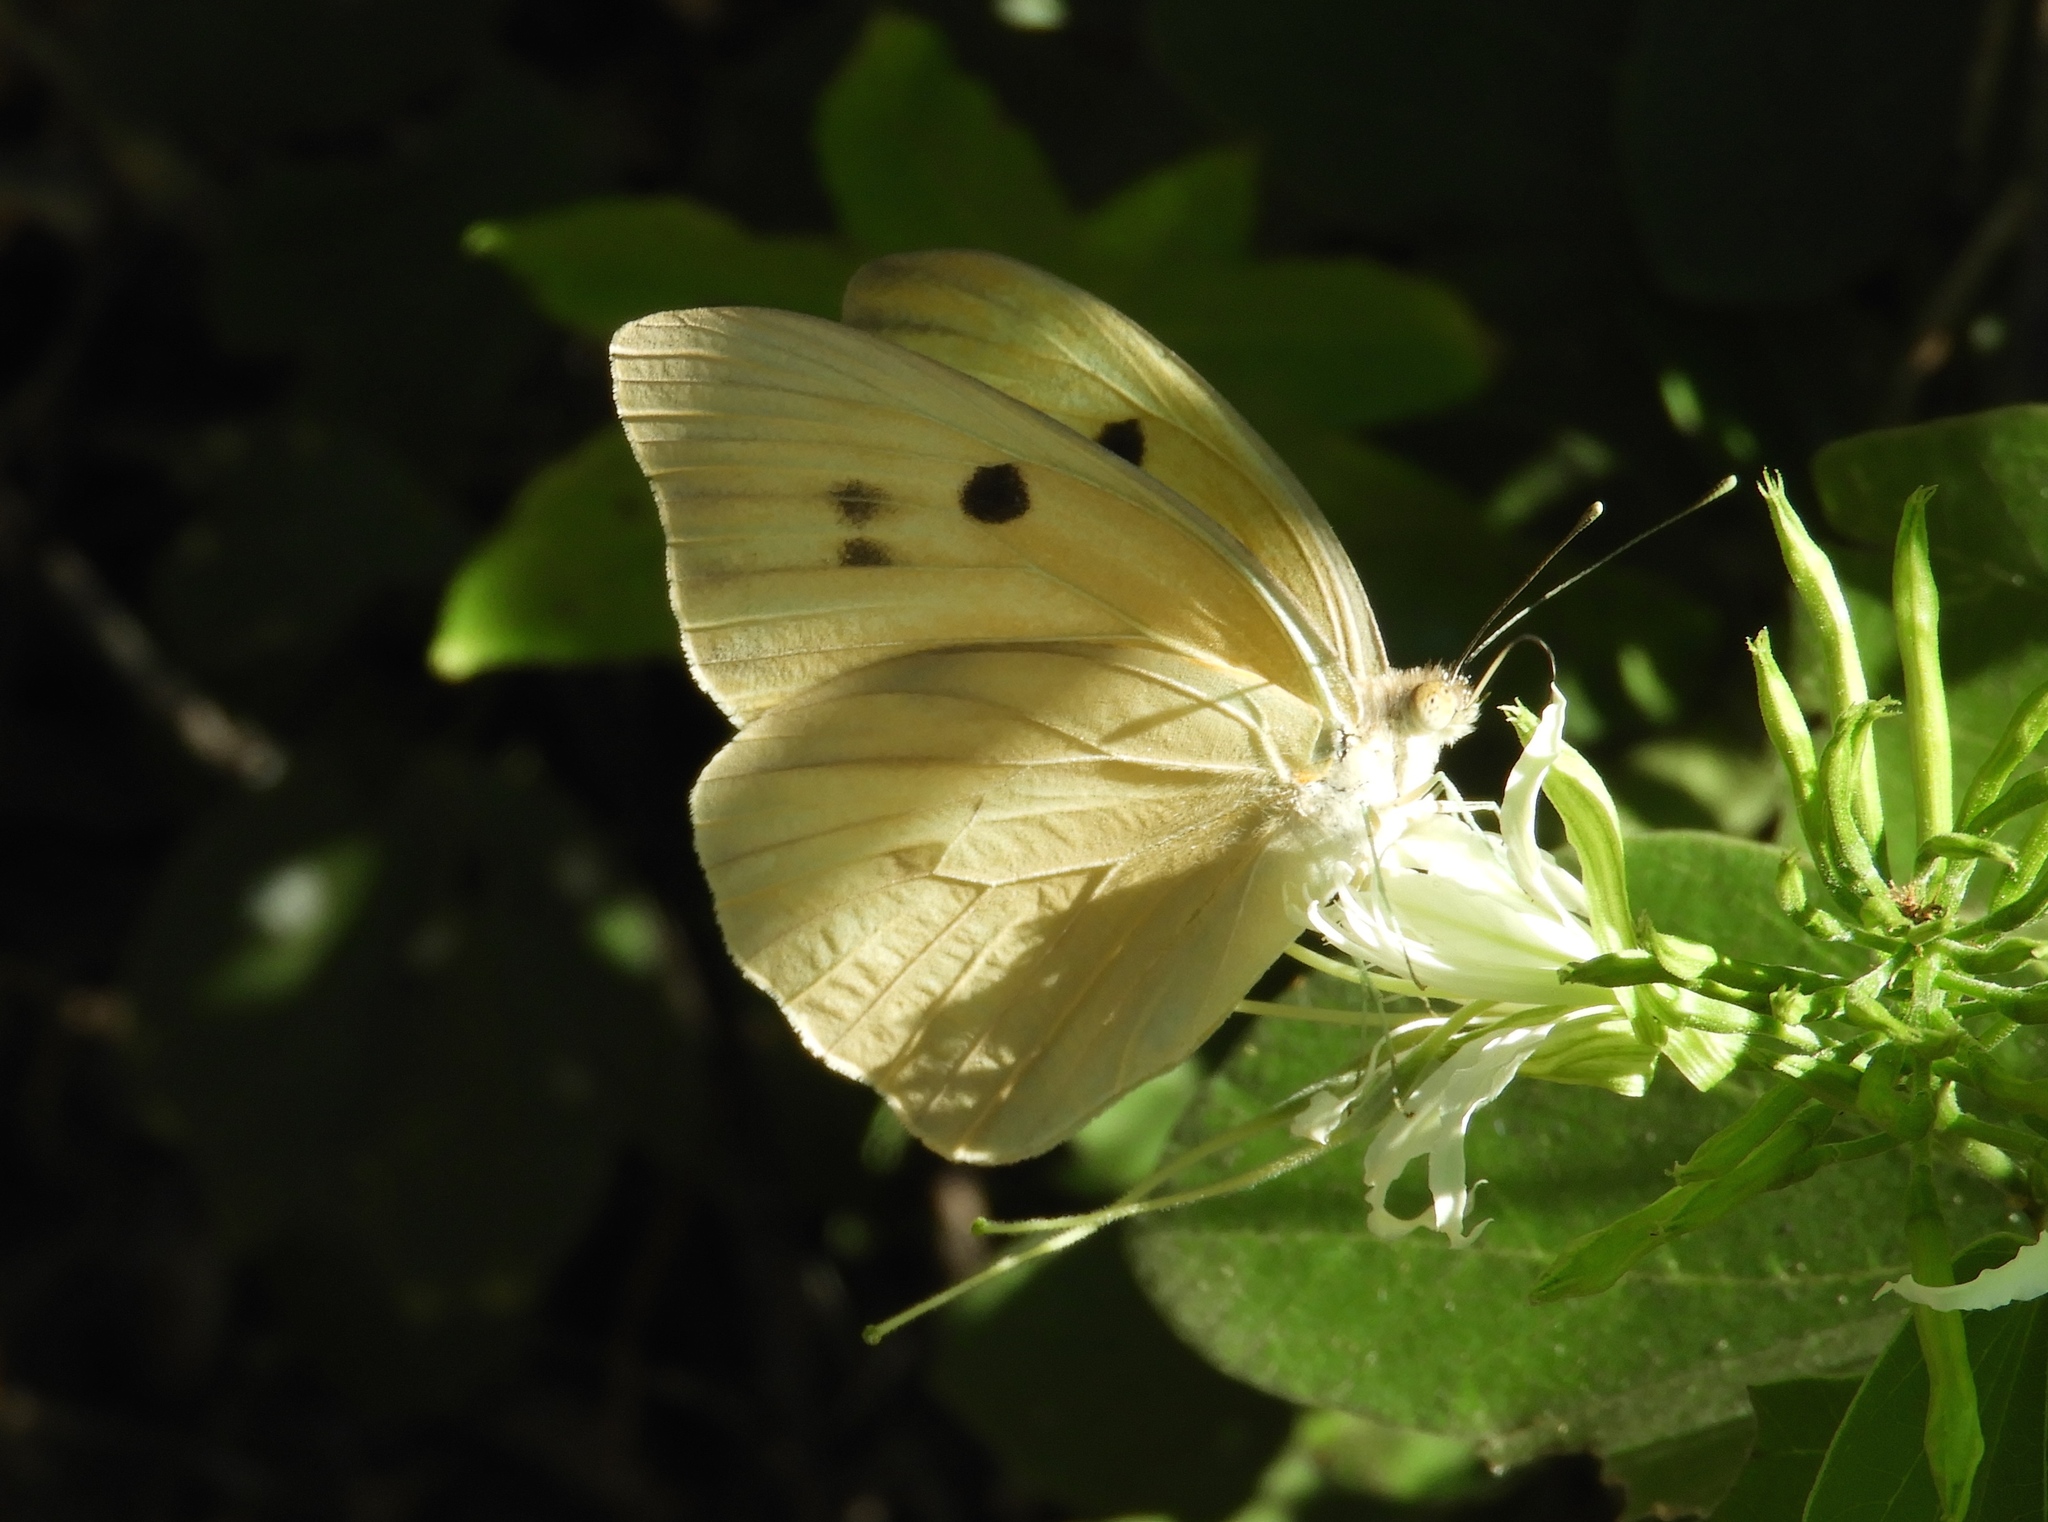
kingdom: Animalia
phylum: Arthropoda
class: Insecta
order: Lepidoptera
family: Pieridae
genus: Ganyra
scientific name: Ganyra josephina
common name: Giant white
